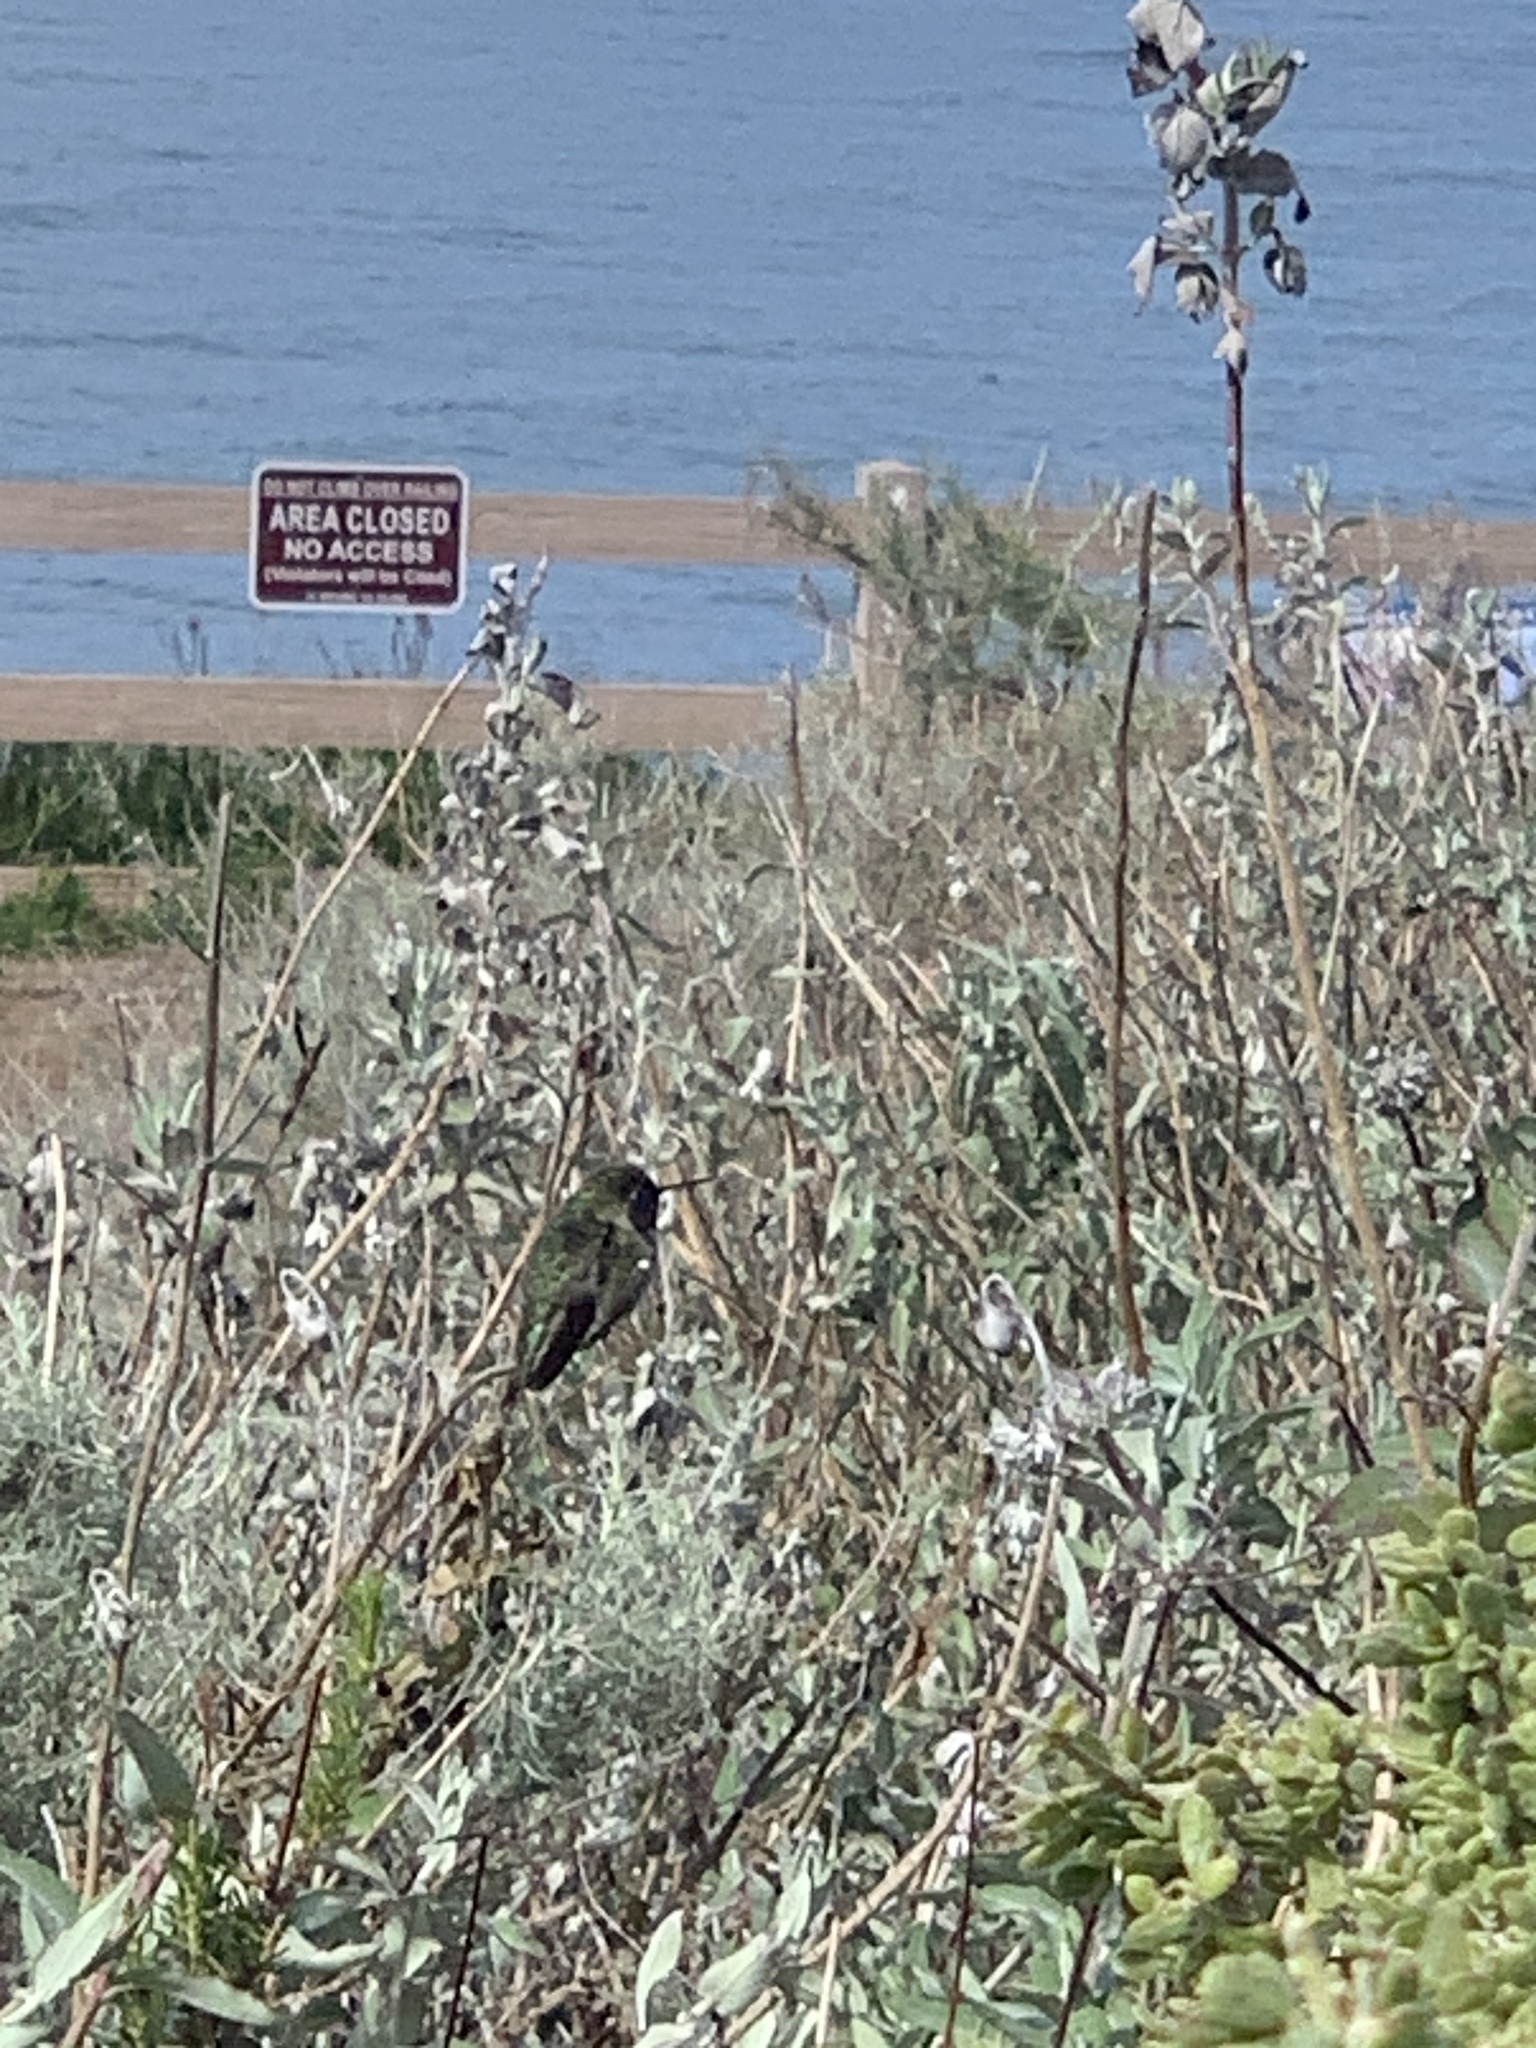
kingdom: Animalia
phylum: Chordata
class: Aves
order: Apodiformes
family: Trochilidae
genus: Calypte
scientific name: Calypte anna
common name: Anna's hummingbird
